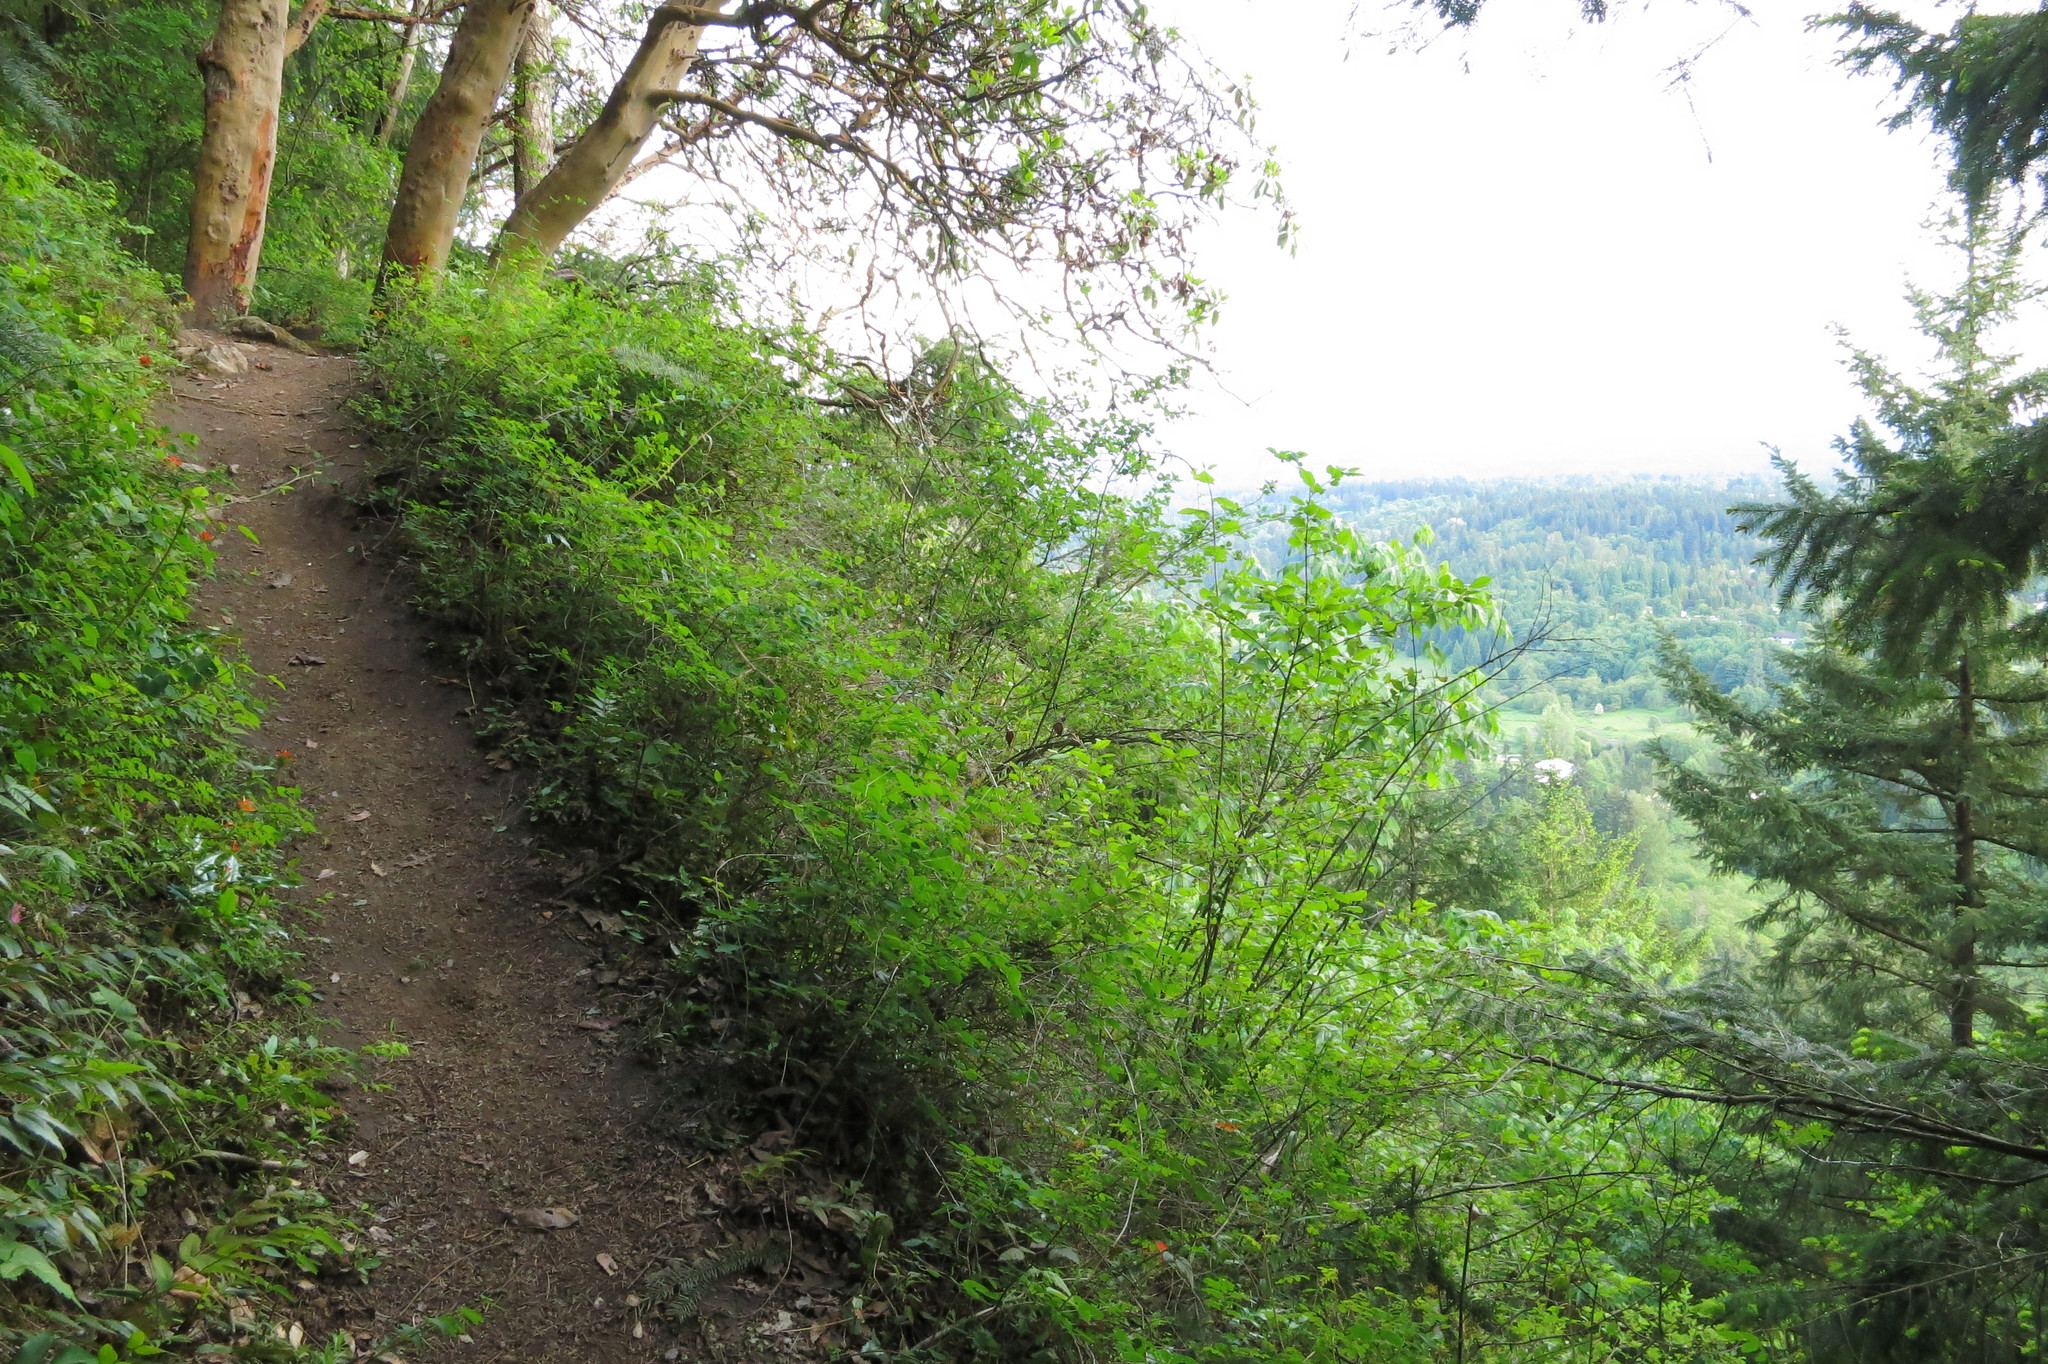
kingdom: Plantae
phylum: Tracheophyta
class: Magnoliopsida
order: Lamiales
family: Orobanchaceae
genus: Castilleja
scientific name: Castilleja hispida
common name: Bristly paintbrush
